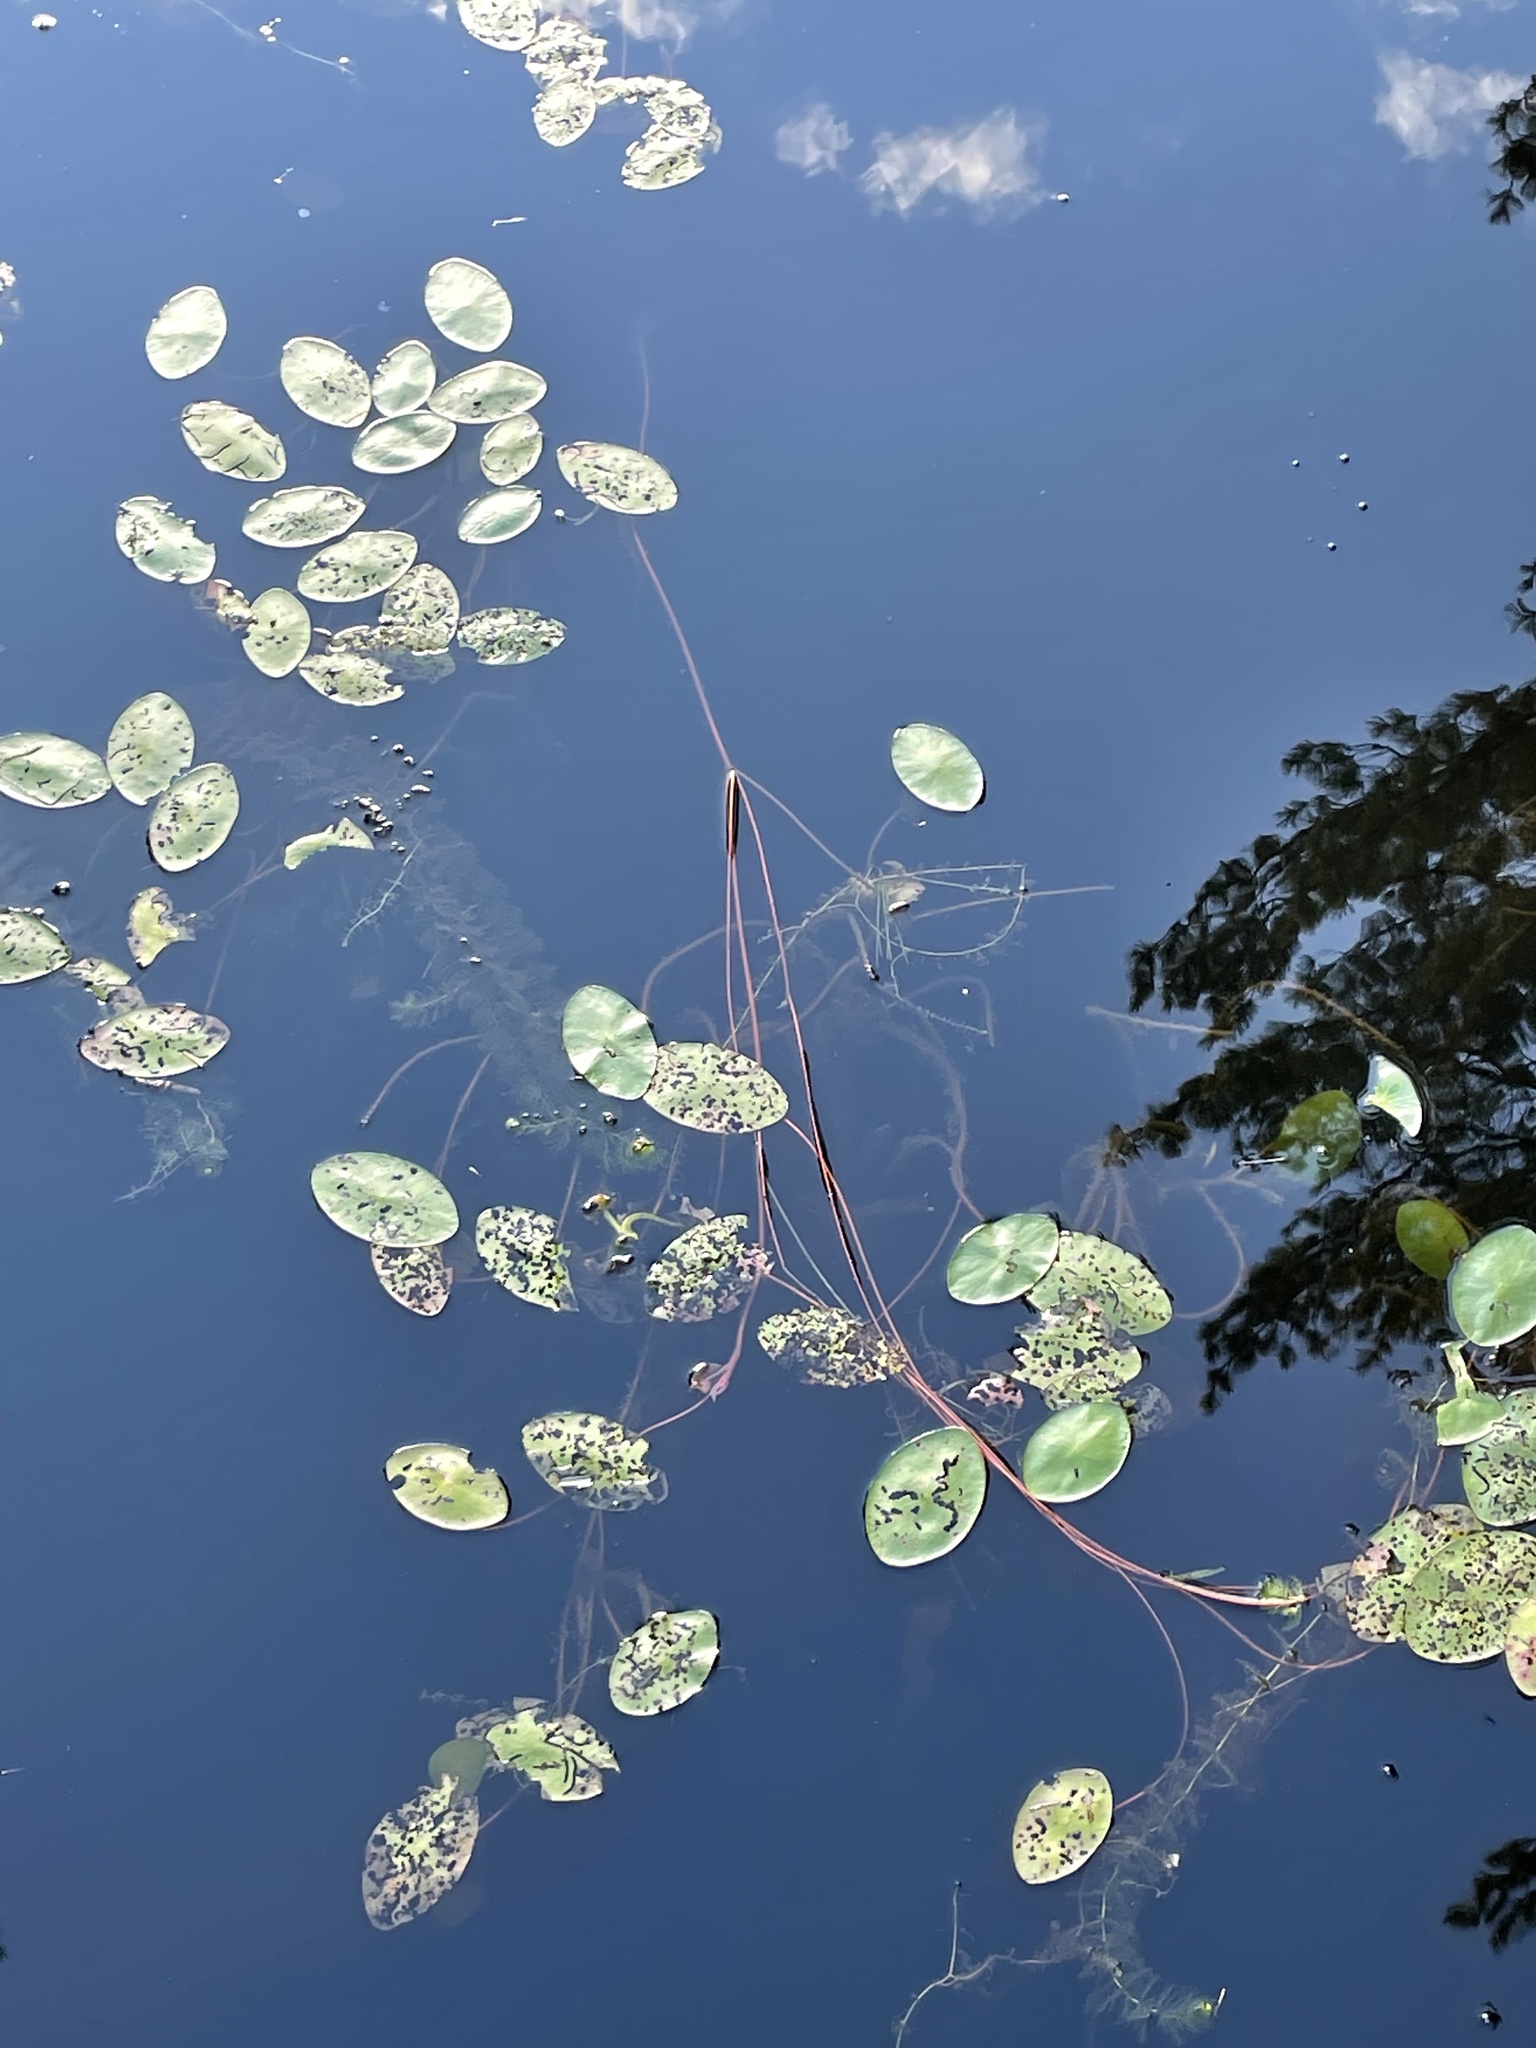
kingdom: Plantae
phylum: Tracheophyta
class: Magnoliopsida
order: Nymphaeales
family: Cabombaceae
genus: Brasenia
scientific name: Brasenia schreberi
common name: Water-shield
